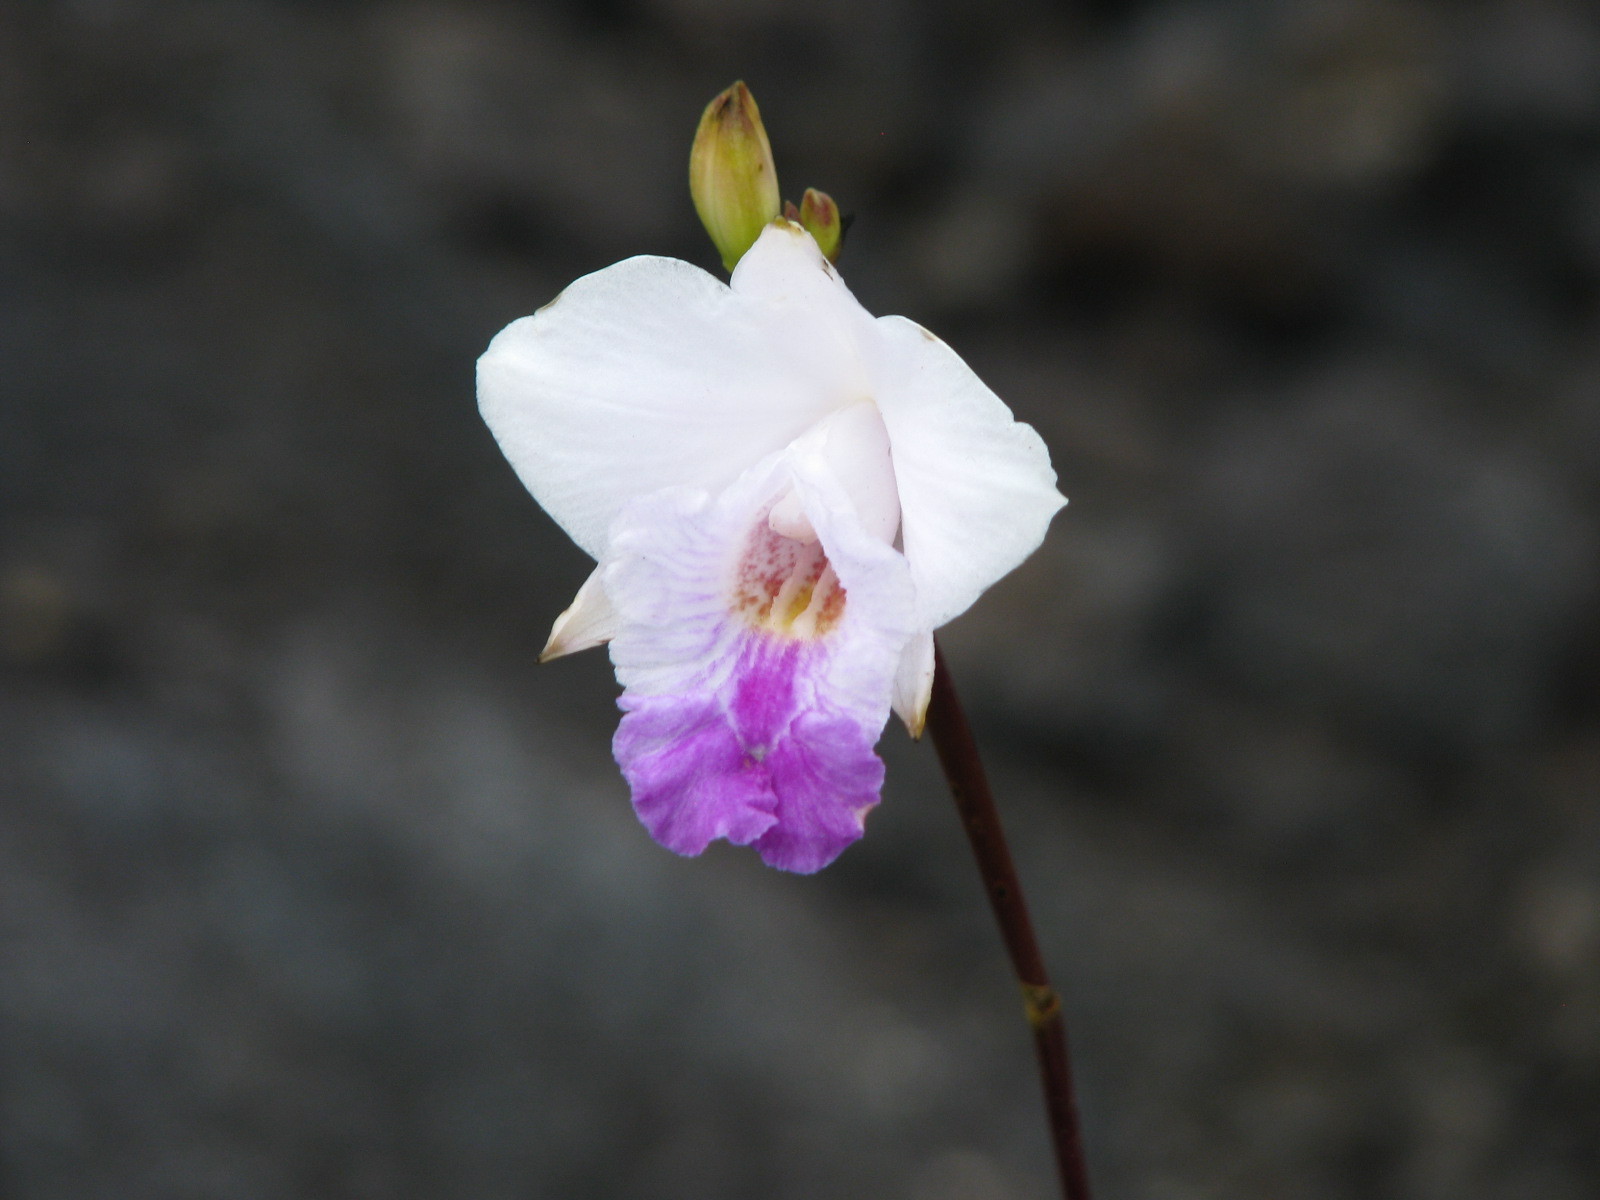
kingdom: Plantae
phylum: Tracheophyta
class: Liliopsida
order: Asparagales
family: Orchidaceae
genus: Arundina
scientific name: Arundina graminifolia
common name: Bamboo orchid
